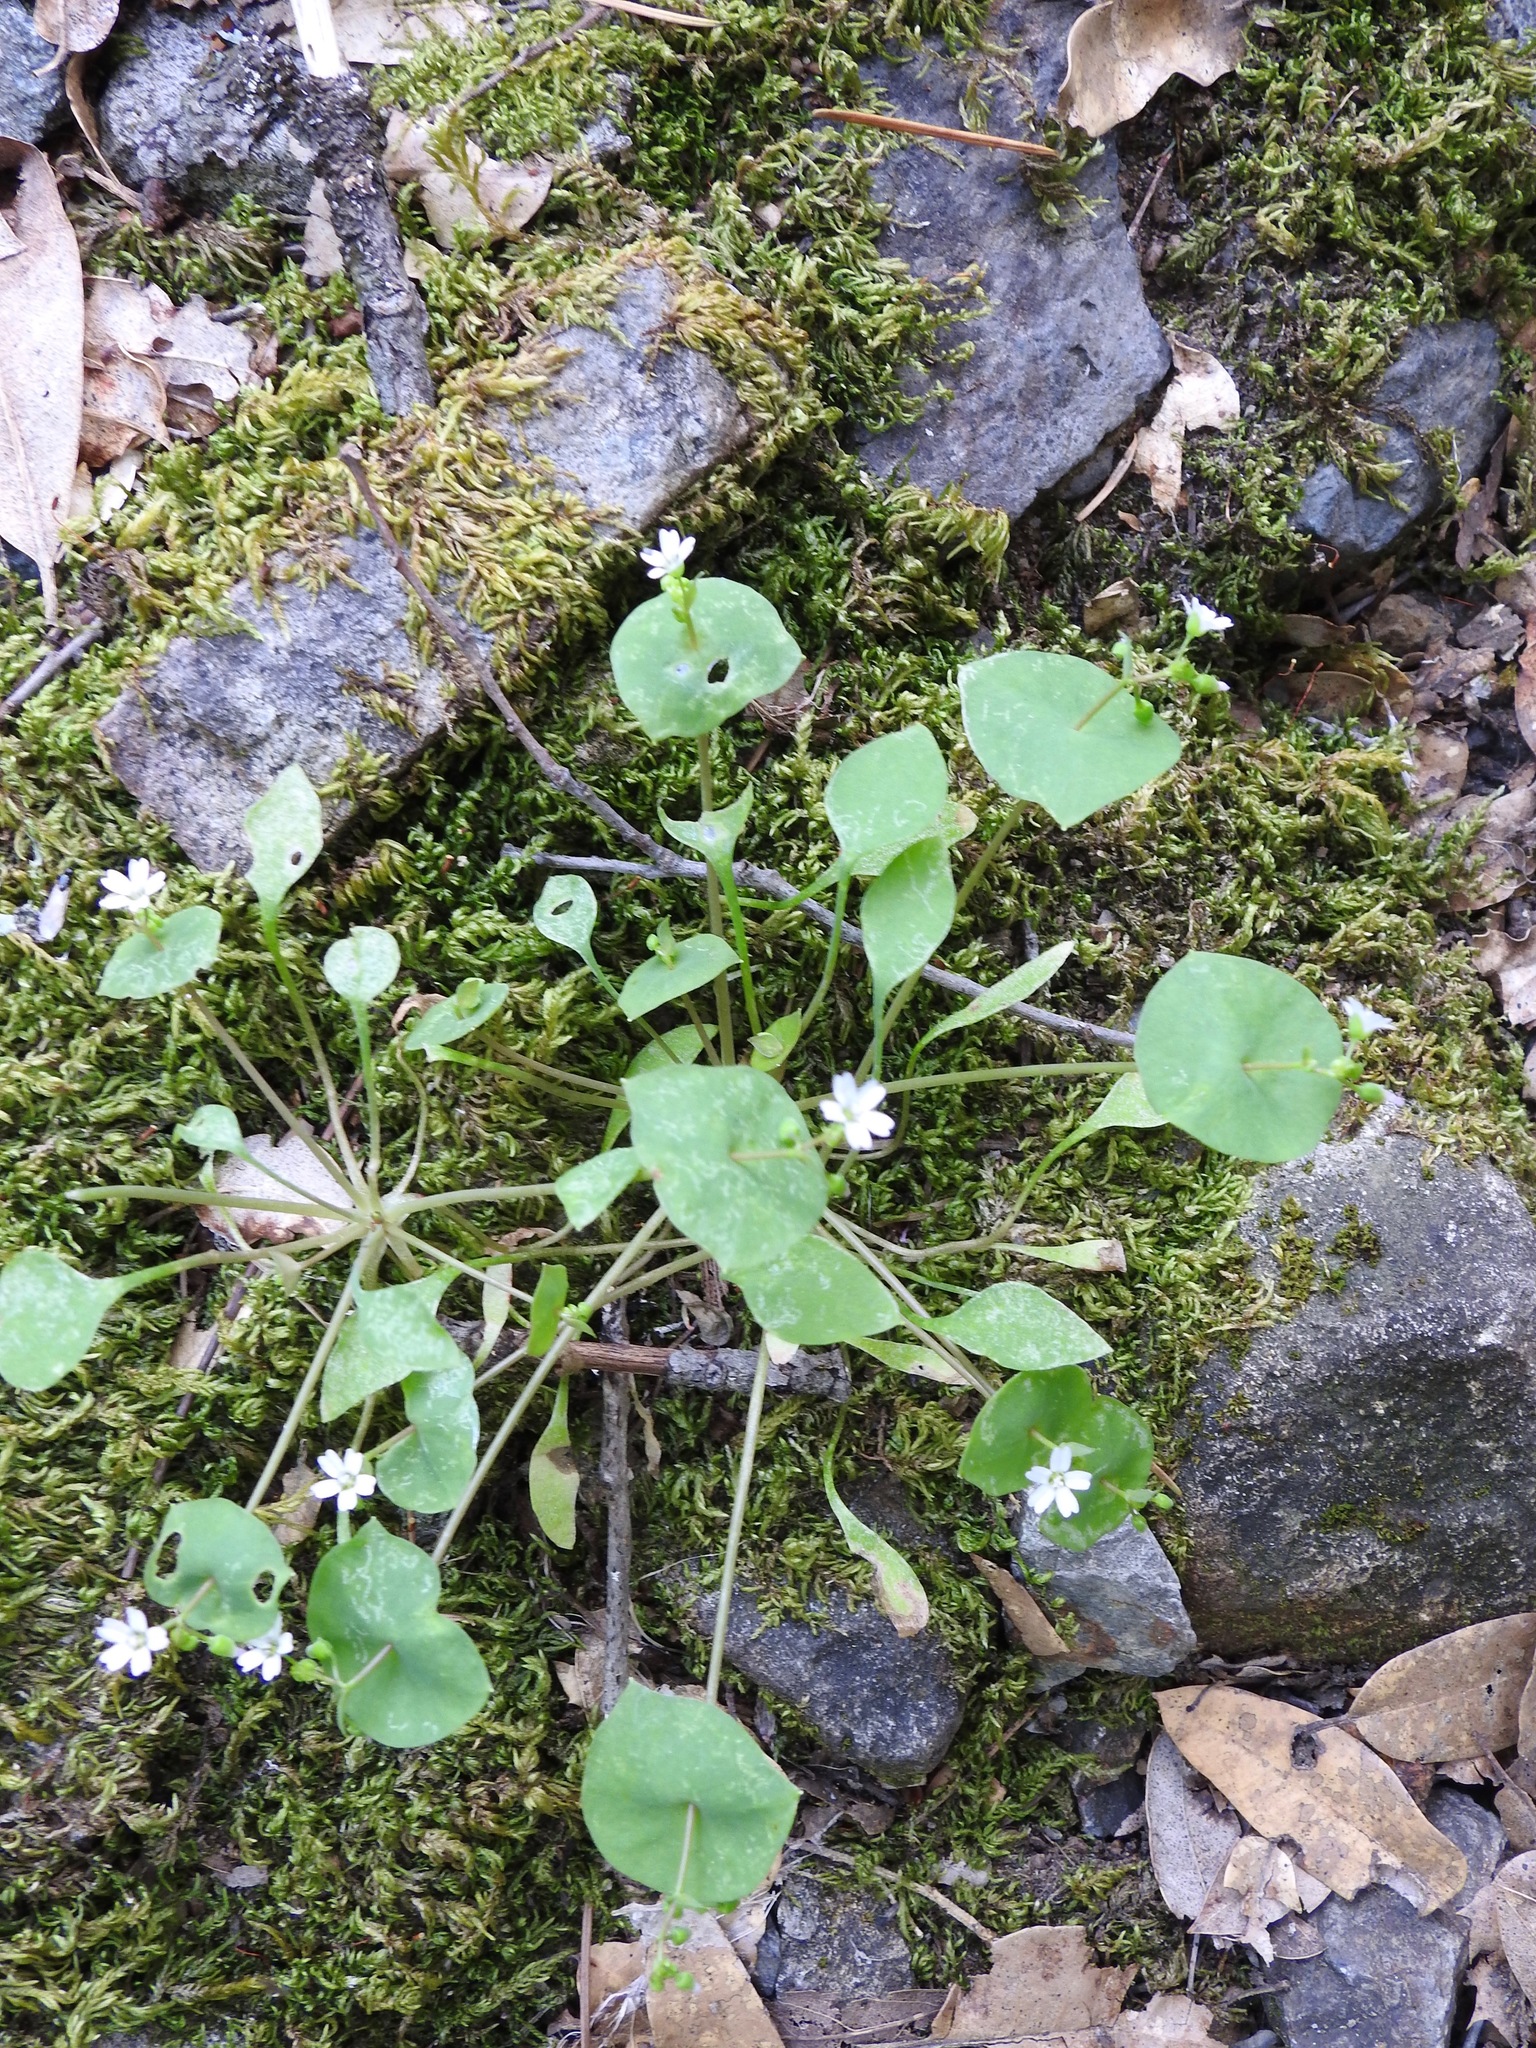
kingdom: Plantae
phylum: Tracheophyta
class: Magnoliopsida
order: Caryophyllales
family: Montiaceae
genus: Claytonia
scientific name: Claytonia perfoliata
